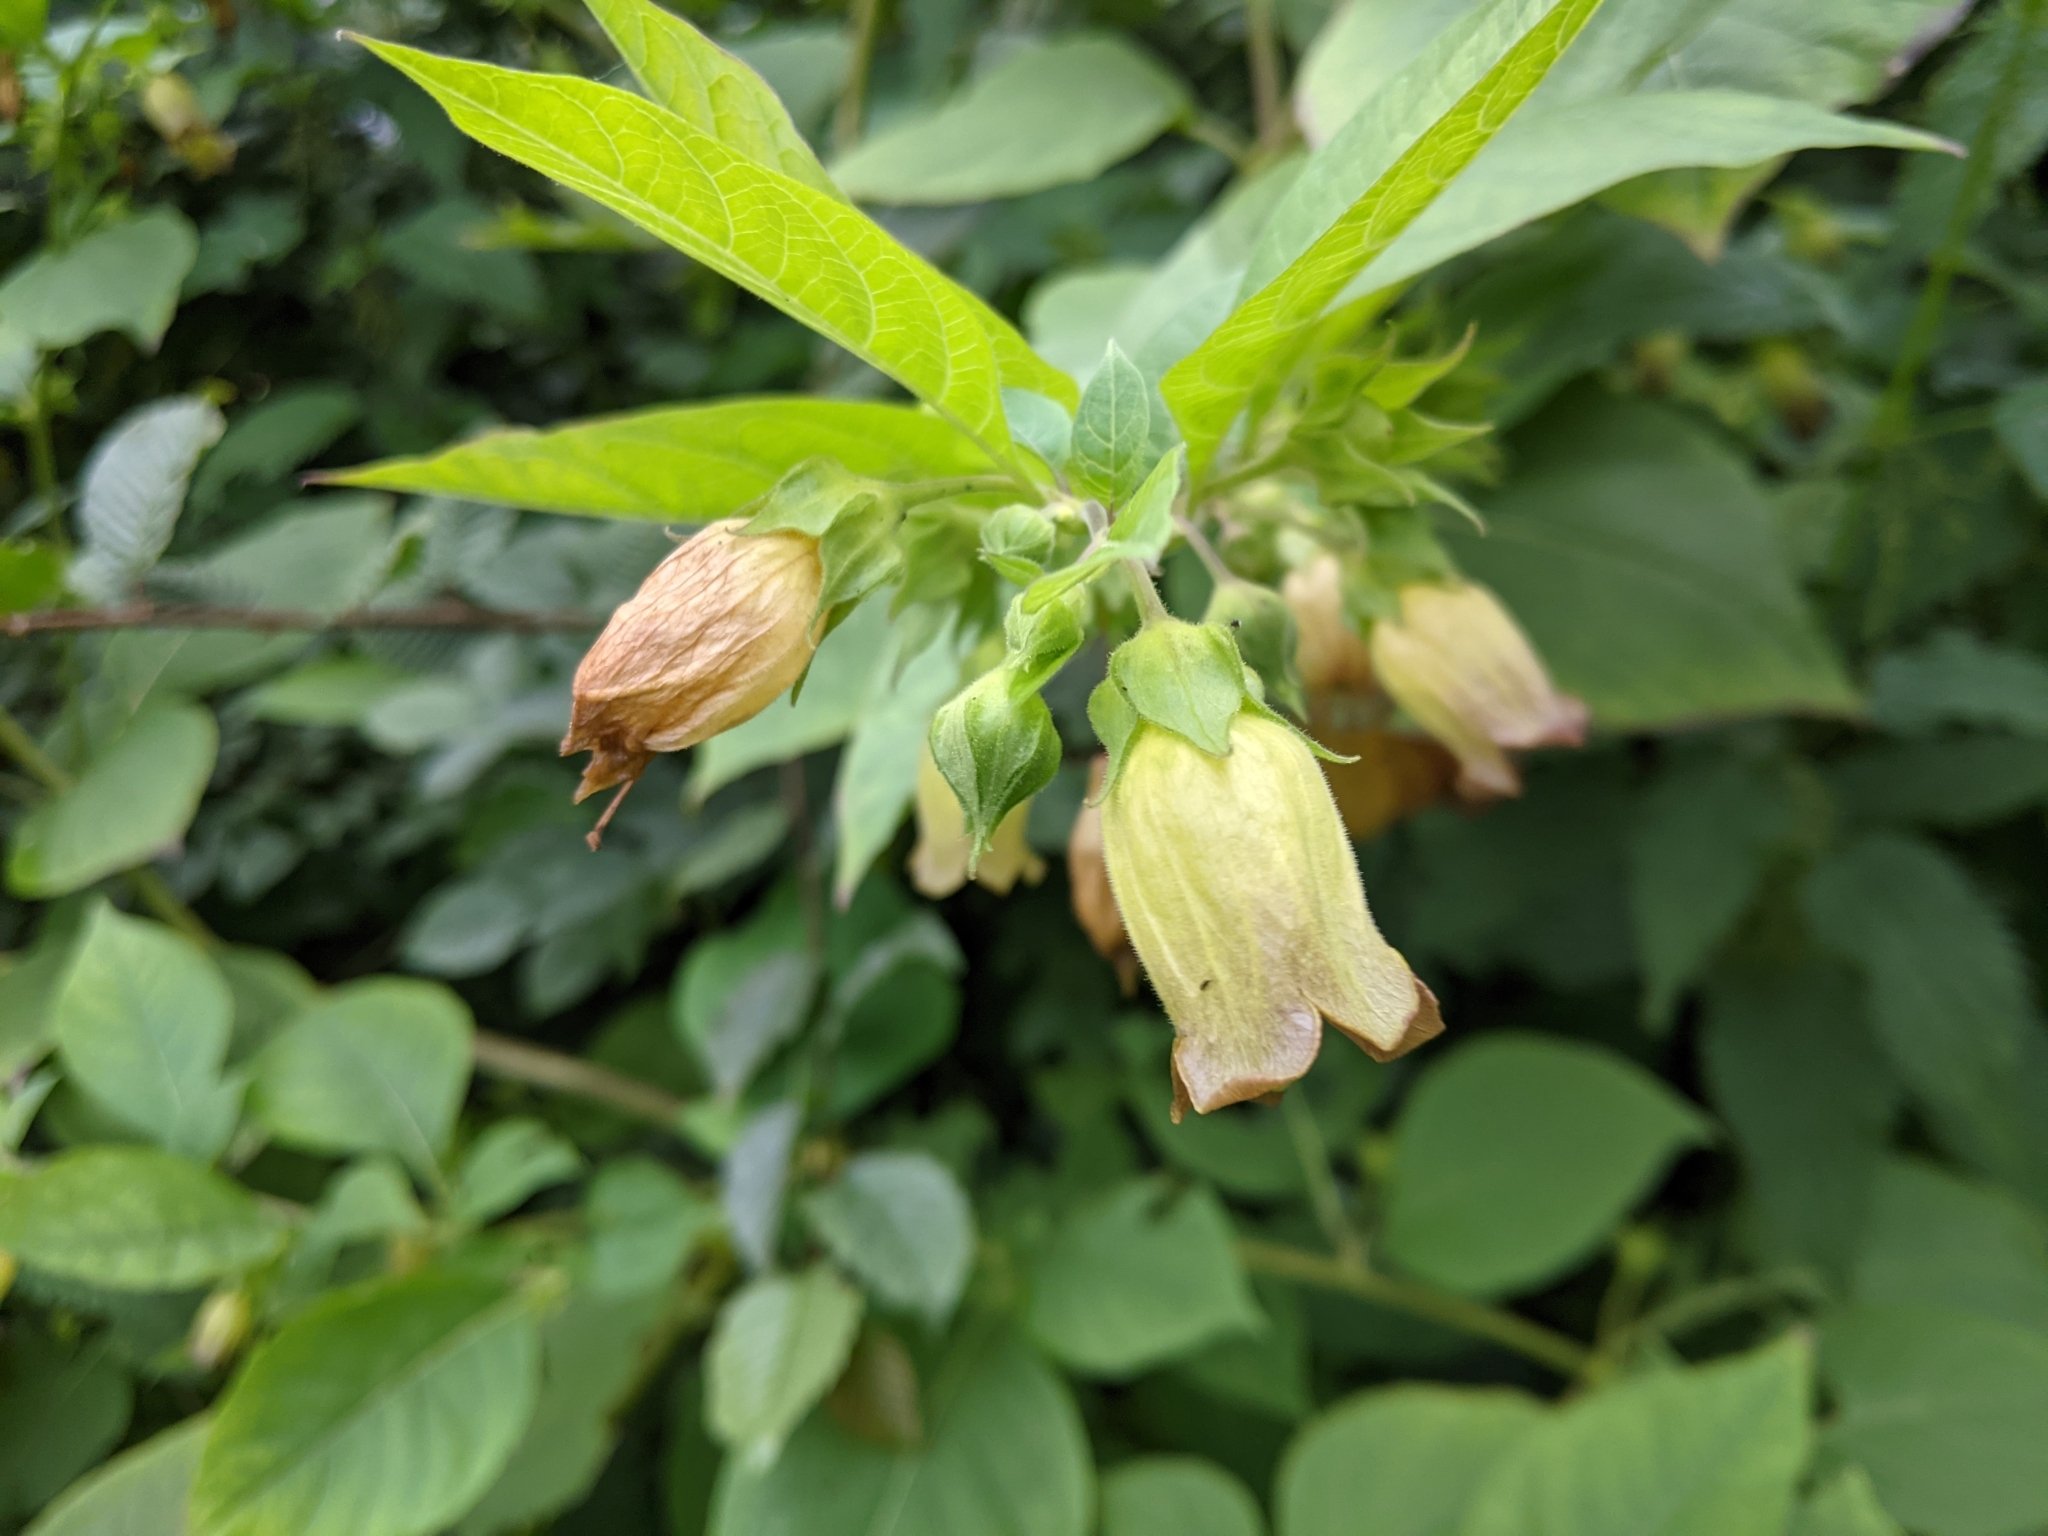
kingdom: Plantae
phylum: Tracheophyta
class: Magnoliopsida
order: Solanales
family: Solanaceae
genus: Atropa
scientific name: Atropa belladonna
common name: Deadly nightshade
